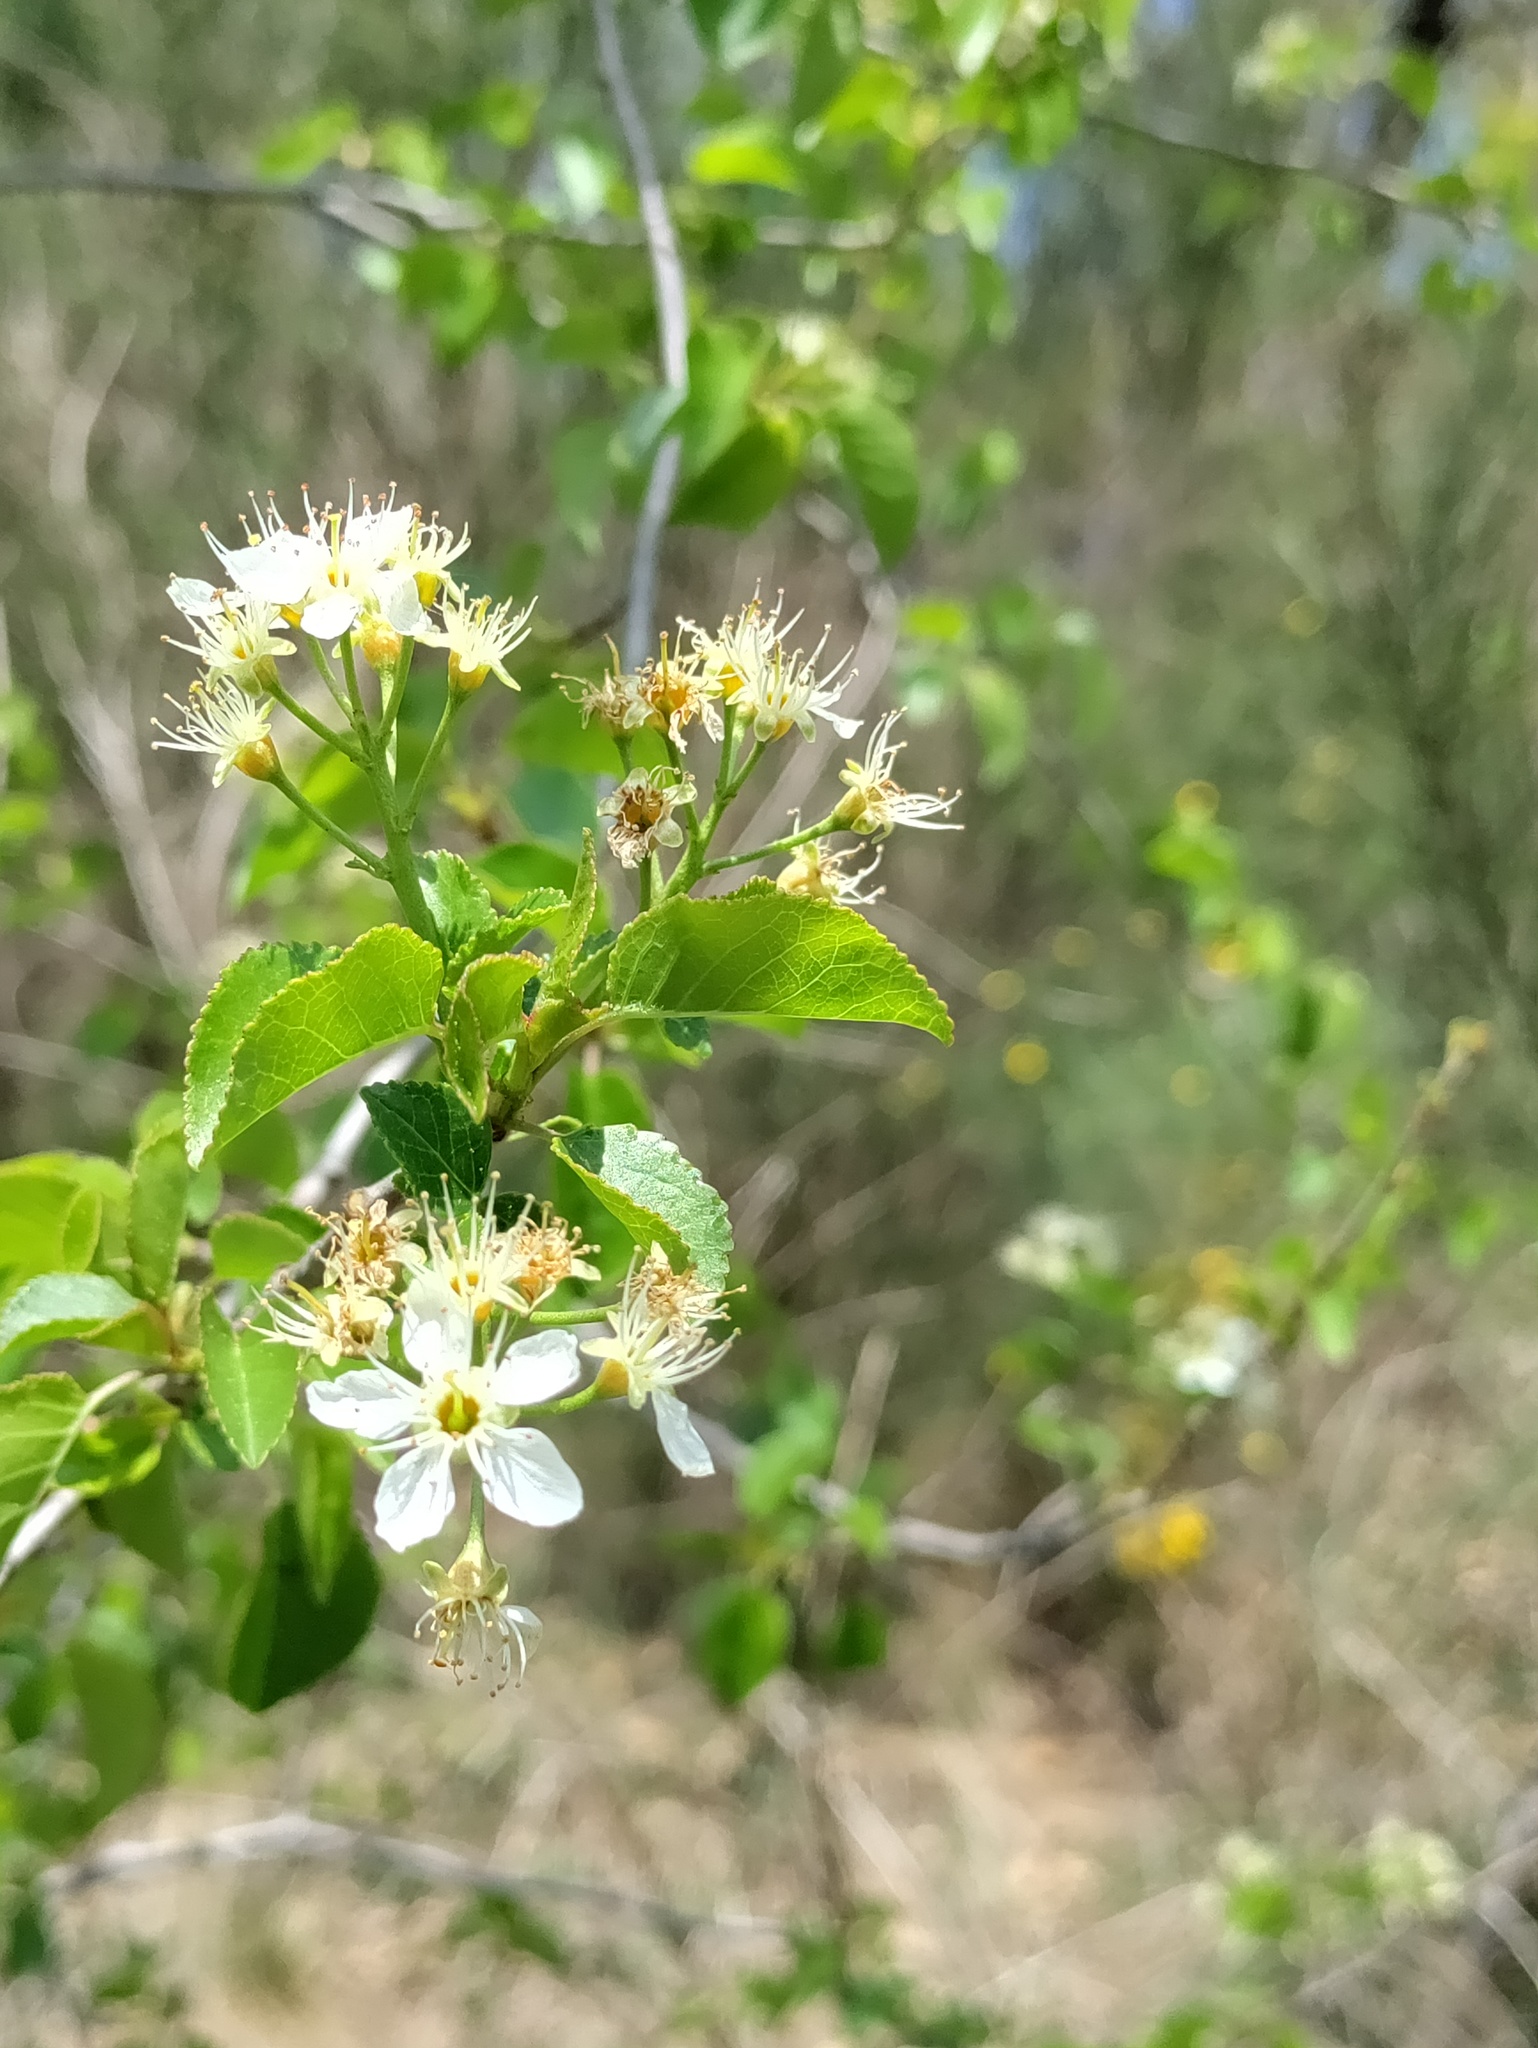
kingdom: Plantae
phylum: Tracheophyta
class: Magnoliopsida
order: Rosales
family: Rosaceae
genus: Prunus
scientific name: Prunus mahaleb
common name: Mahaleb cherry
